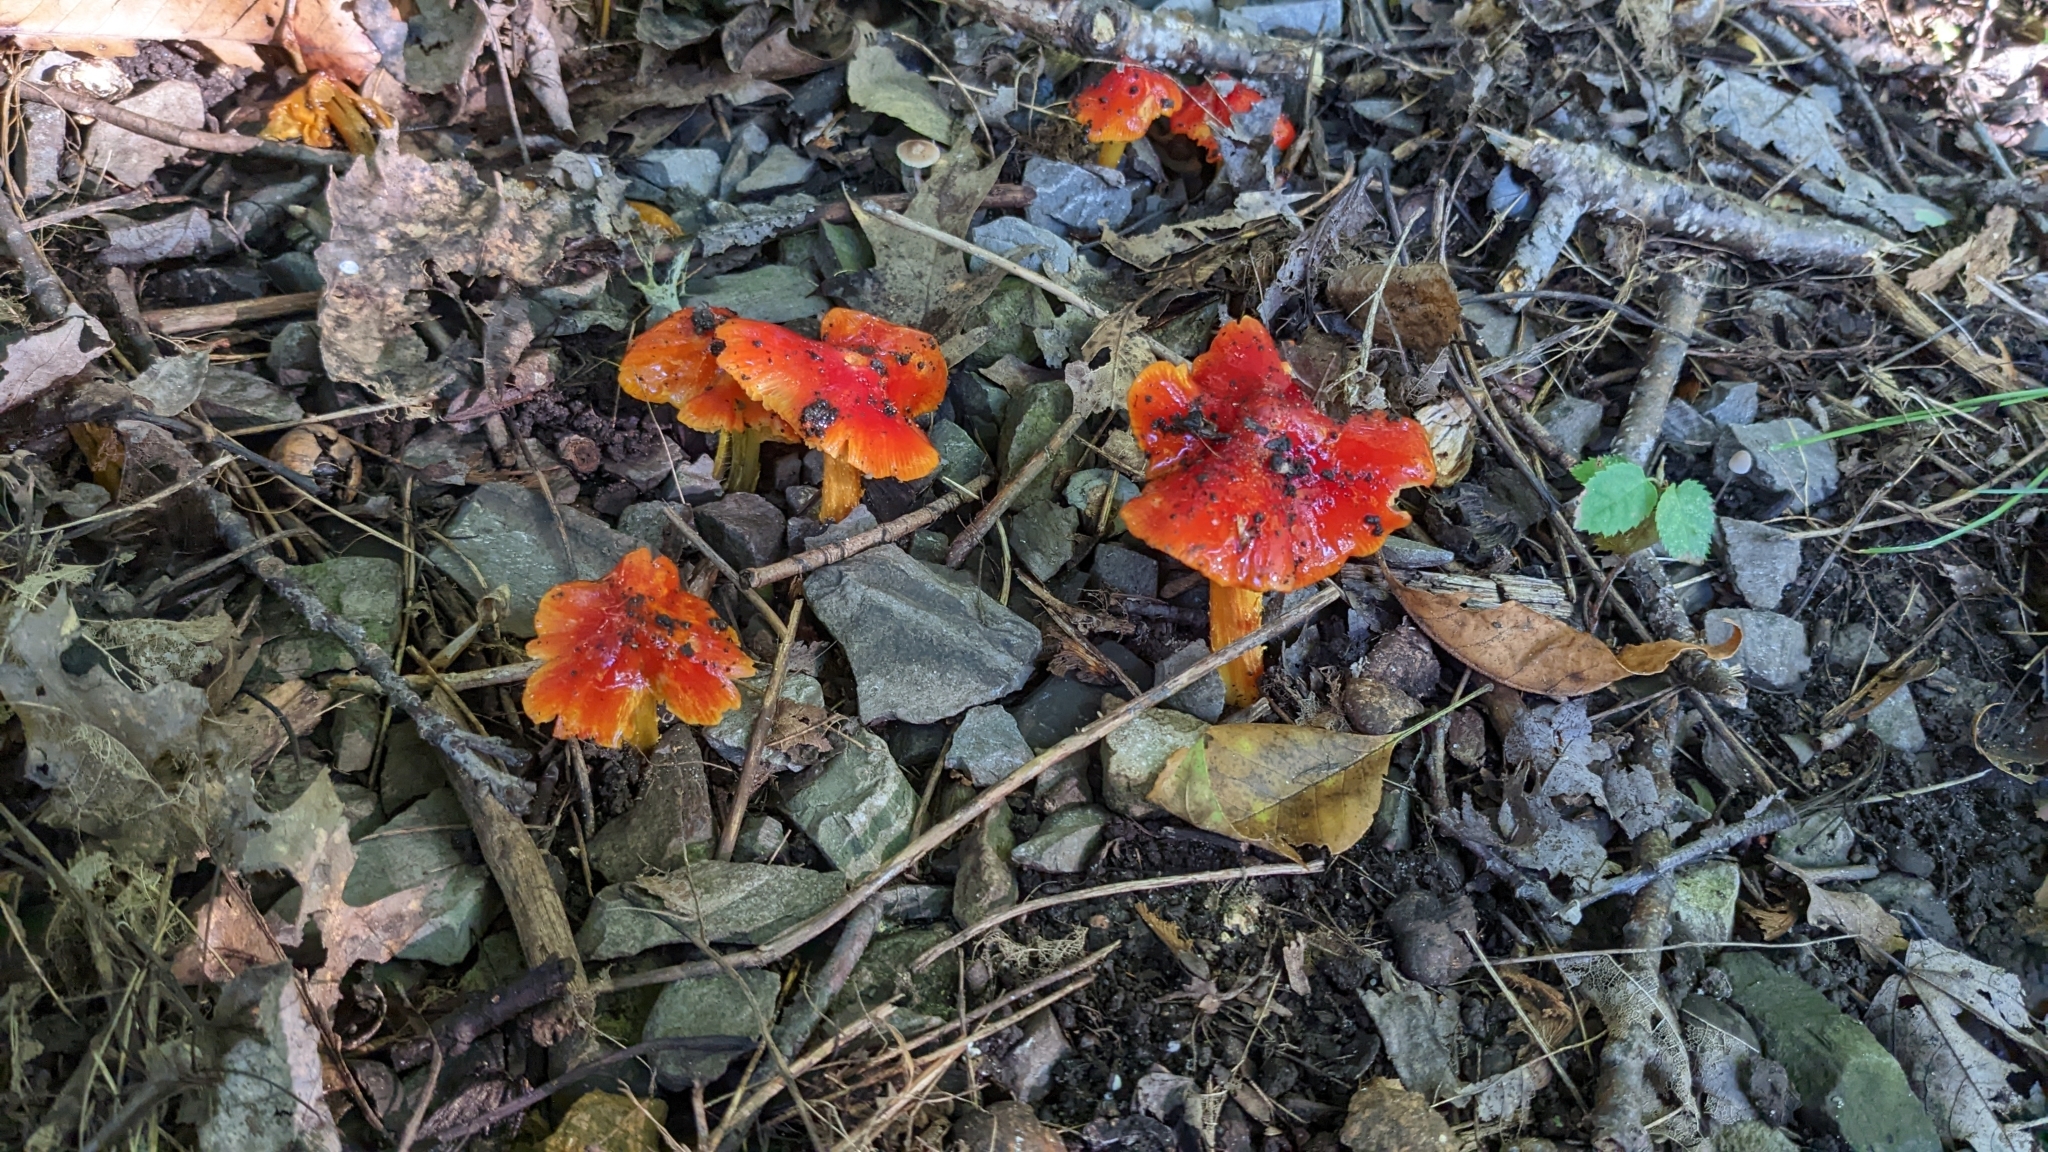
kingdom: Fungi
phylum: Basidiomycota
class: Agaricomycetes
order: Agaricales
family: Hygrophoraceae
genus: Hygrocybe
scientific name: Hygrocybe cuspidata
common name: Candy apple waxy cap
